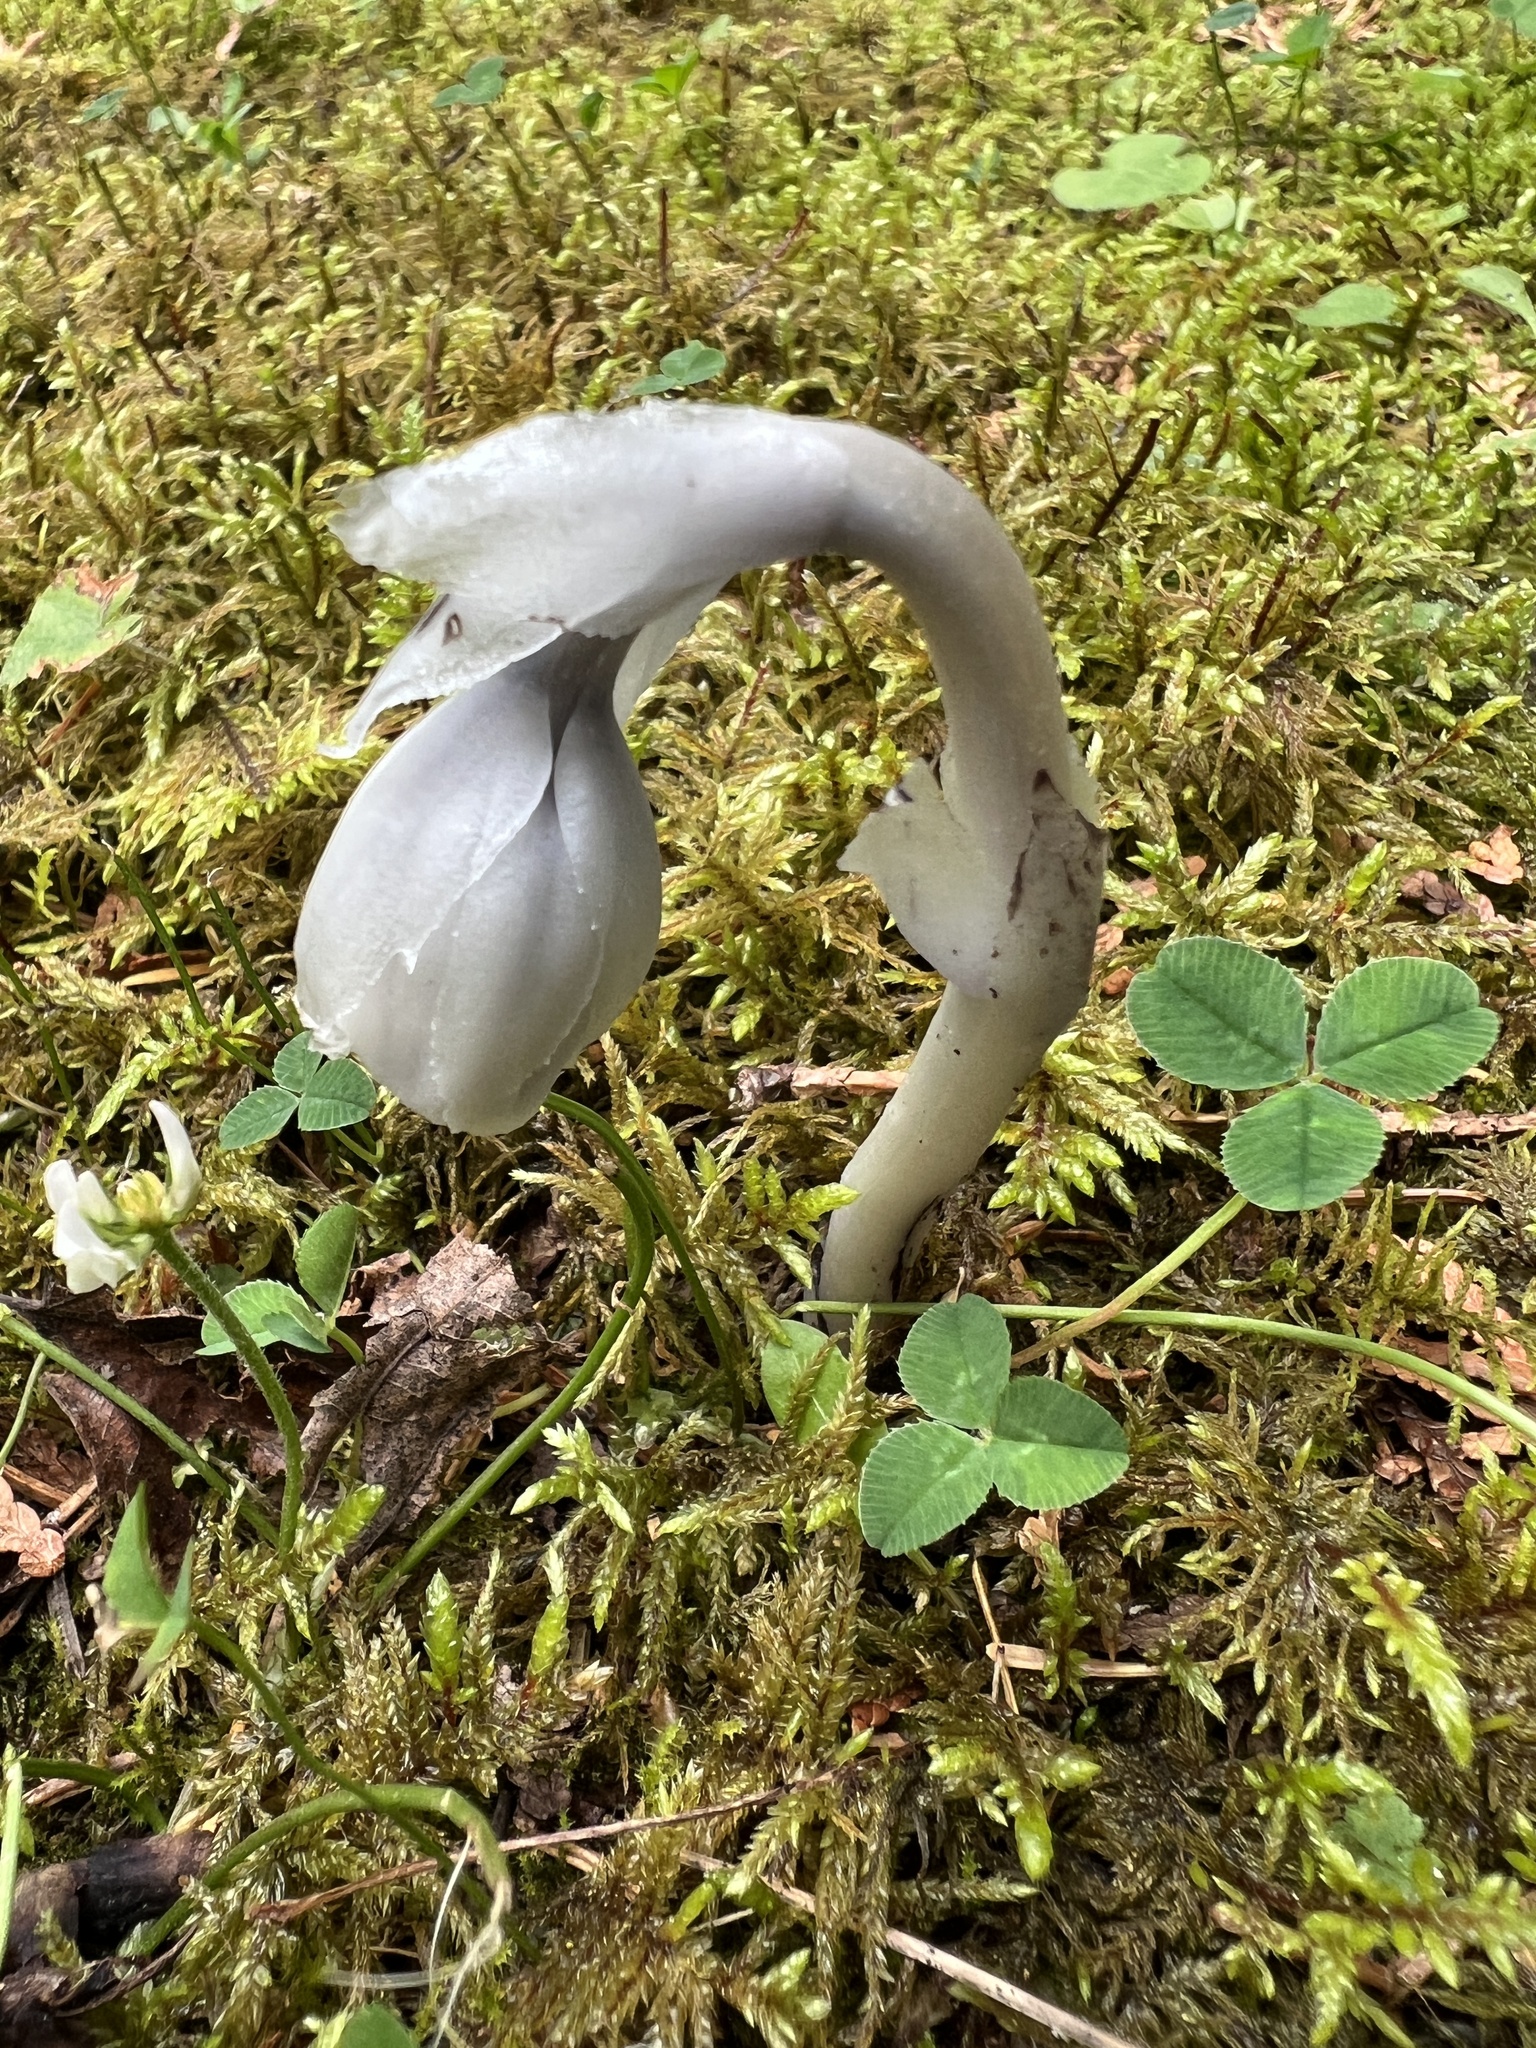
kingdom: Plantae
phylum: Tracheophyta
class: Magnoliopsida
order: Ericales
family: Ericaceae
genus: Monotropa
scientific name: Monotropa uniflora
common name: Convulsion root
